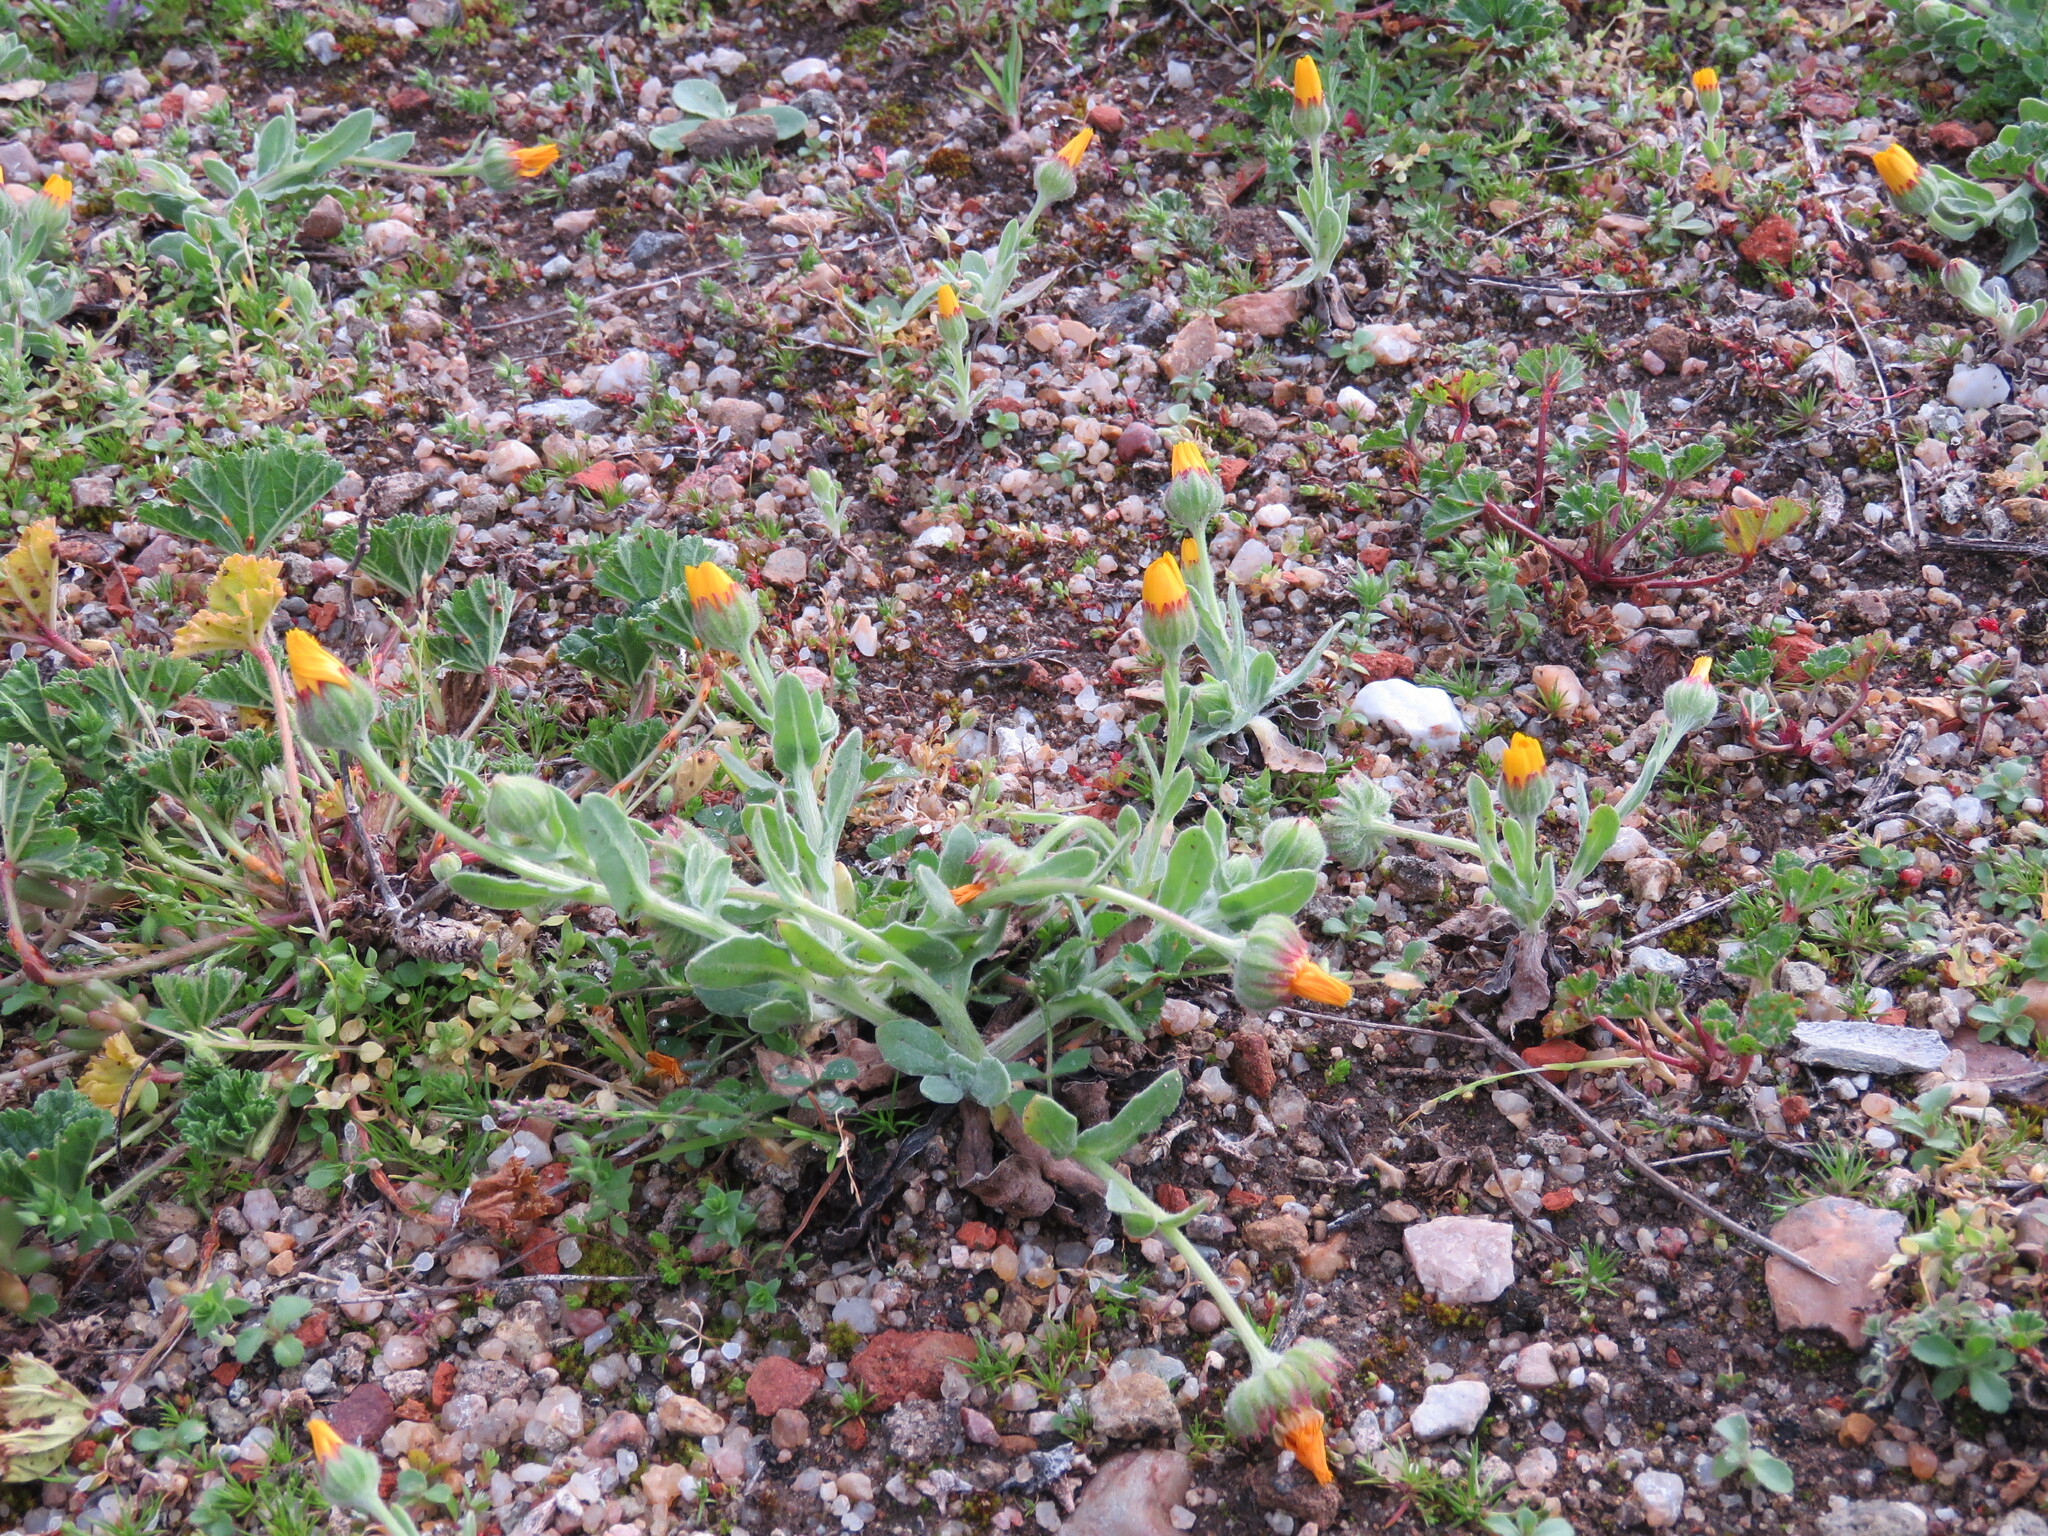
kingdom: Plantae
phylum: Tracheophyta
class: Magnoliopsida
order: Asterales
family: Asteraceae
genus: Calendula
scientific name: Calendula arvensis
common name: Field marigold
